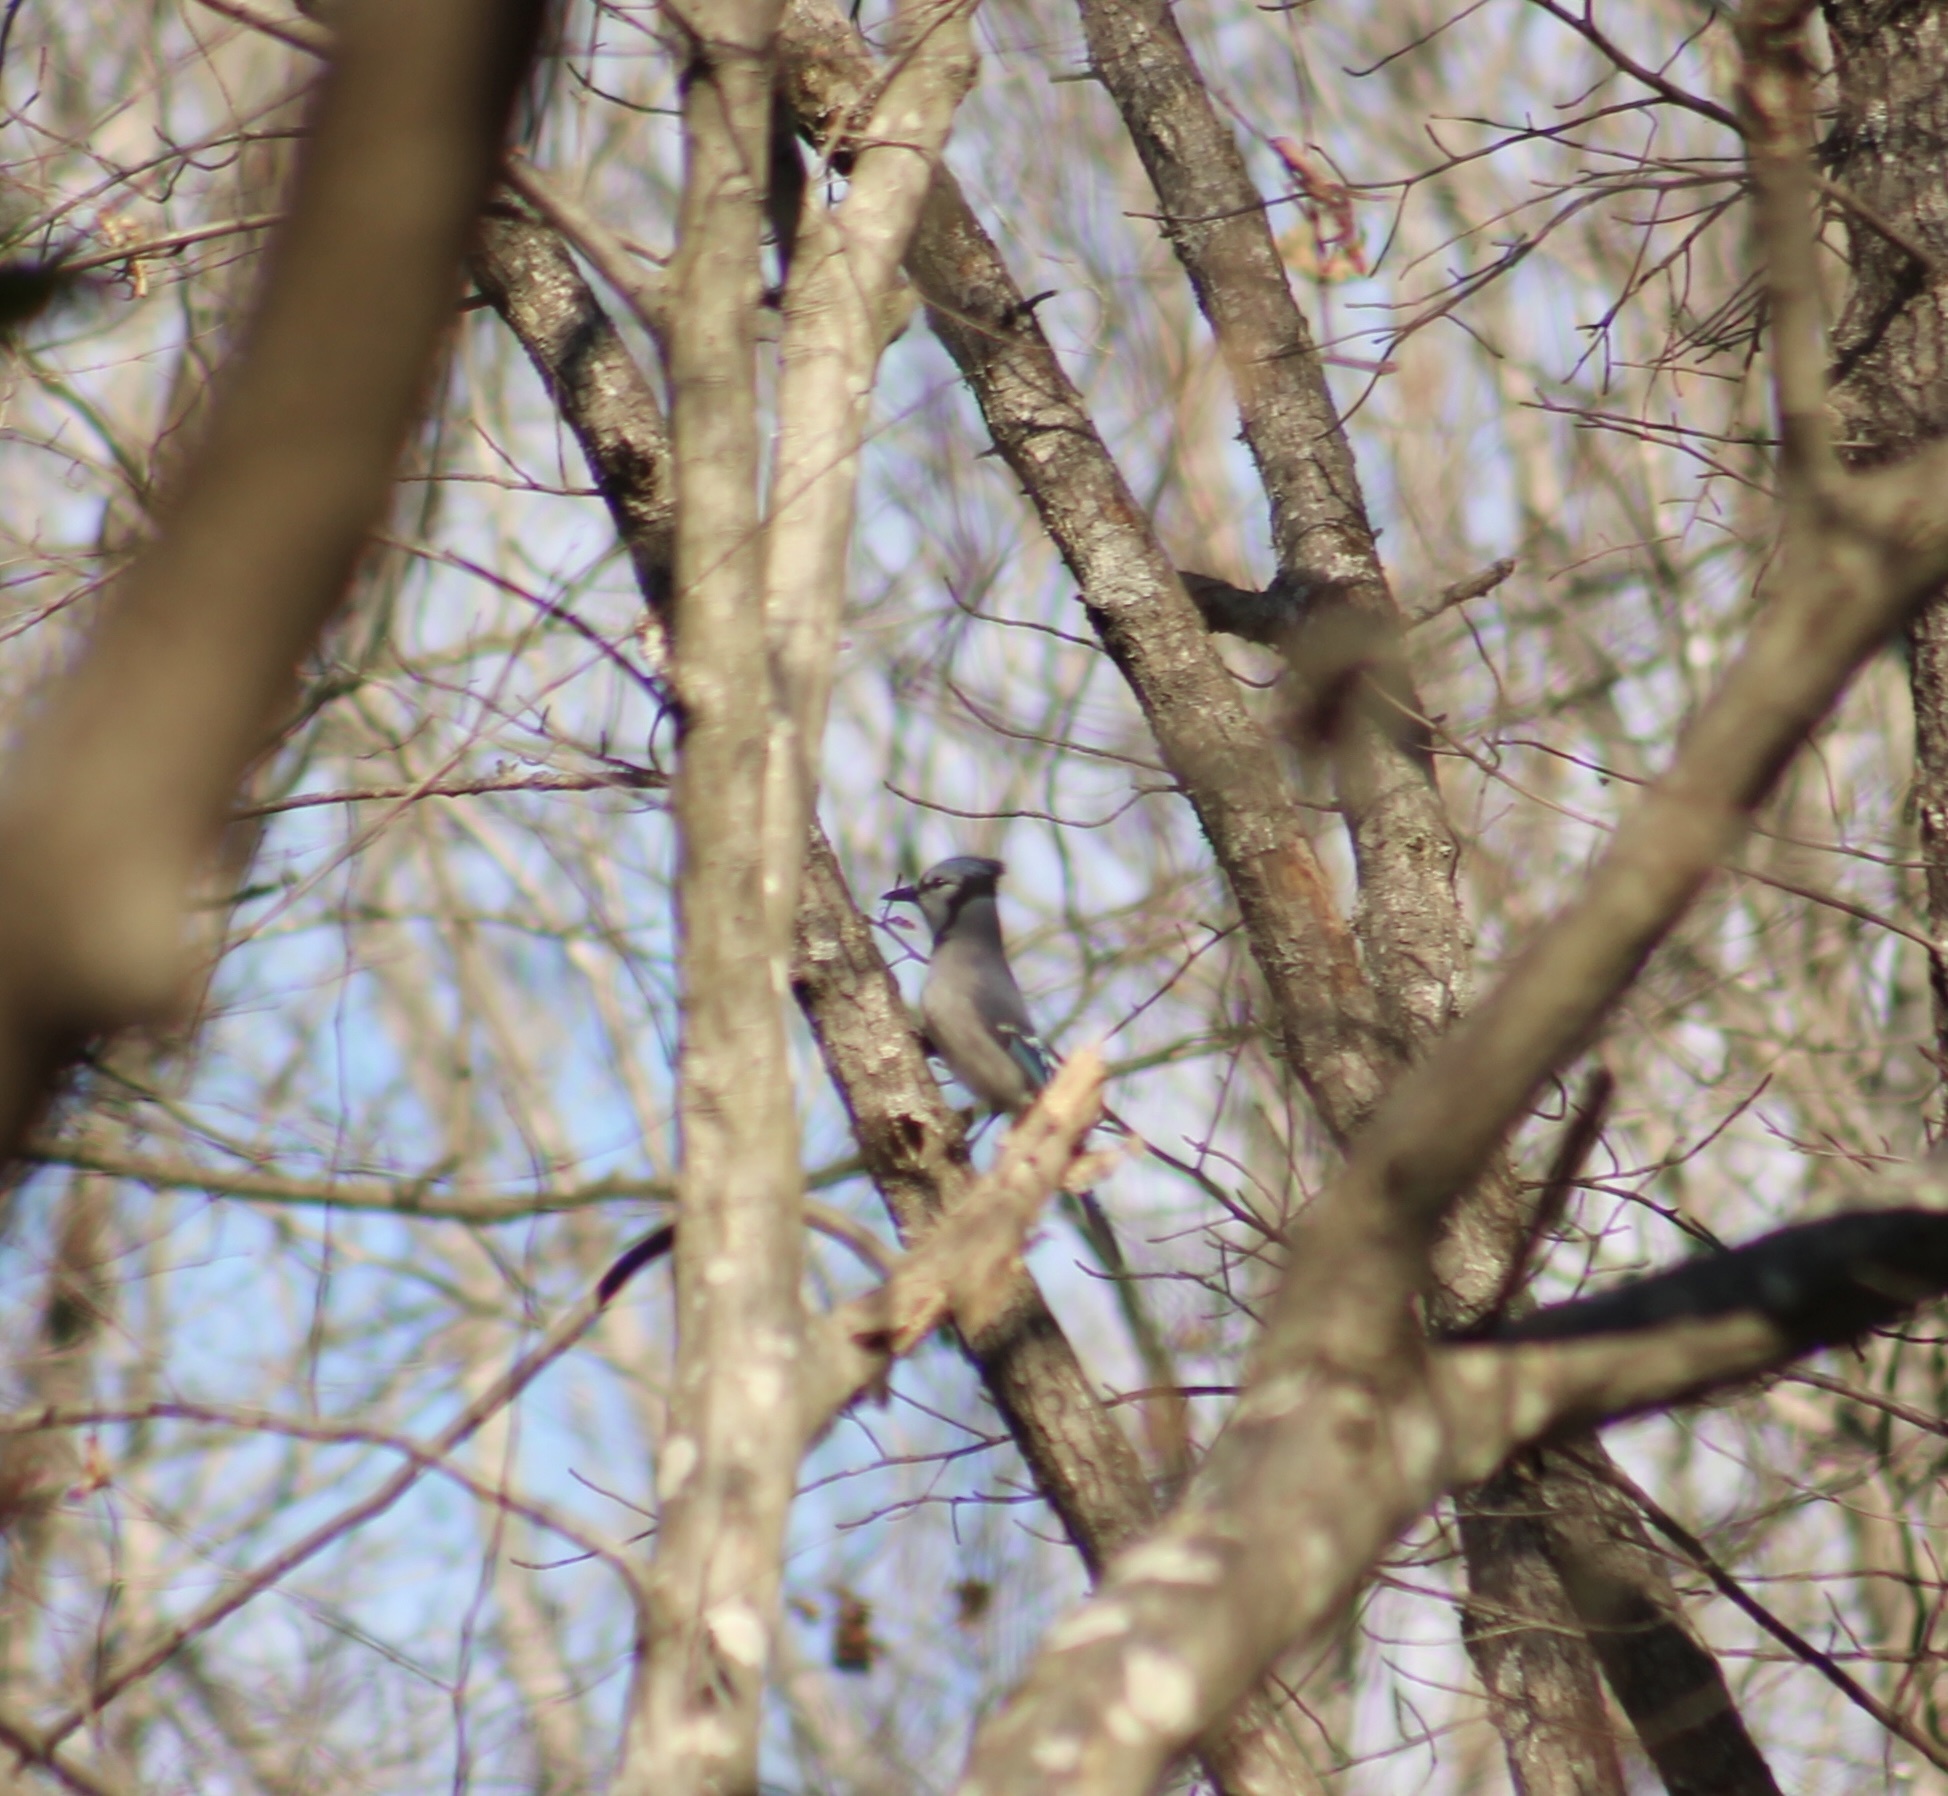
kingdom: Animalia
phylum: Chordata
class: Aves
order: Passeriformes
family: Corvidae
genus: Cyanocitta
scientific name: Cyanocitta cristata
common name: Blue jay
